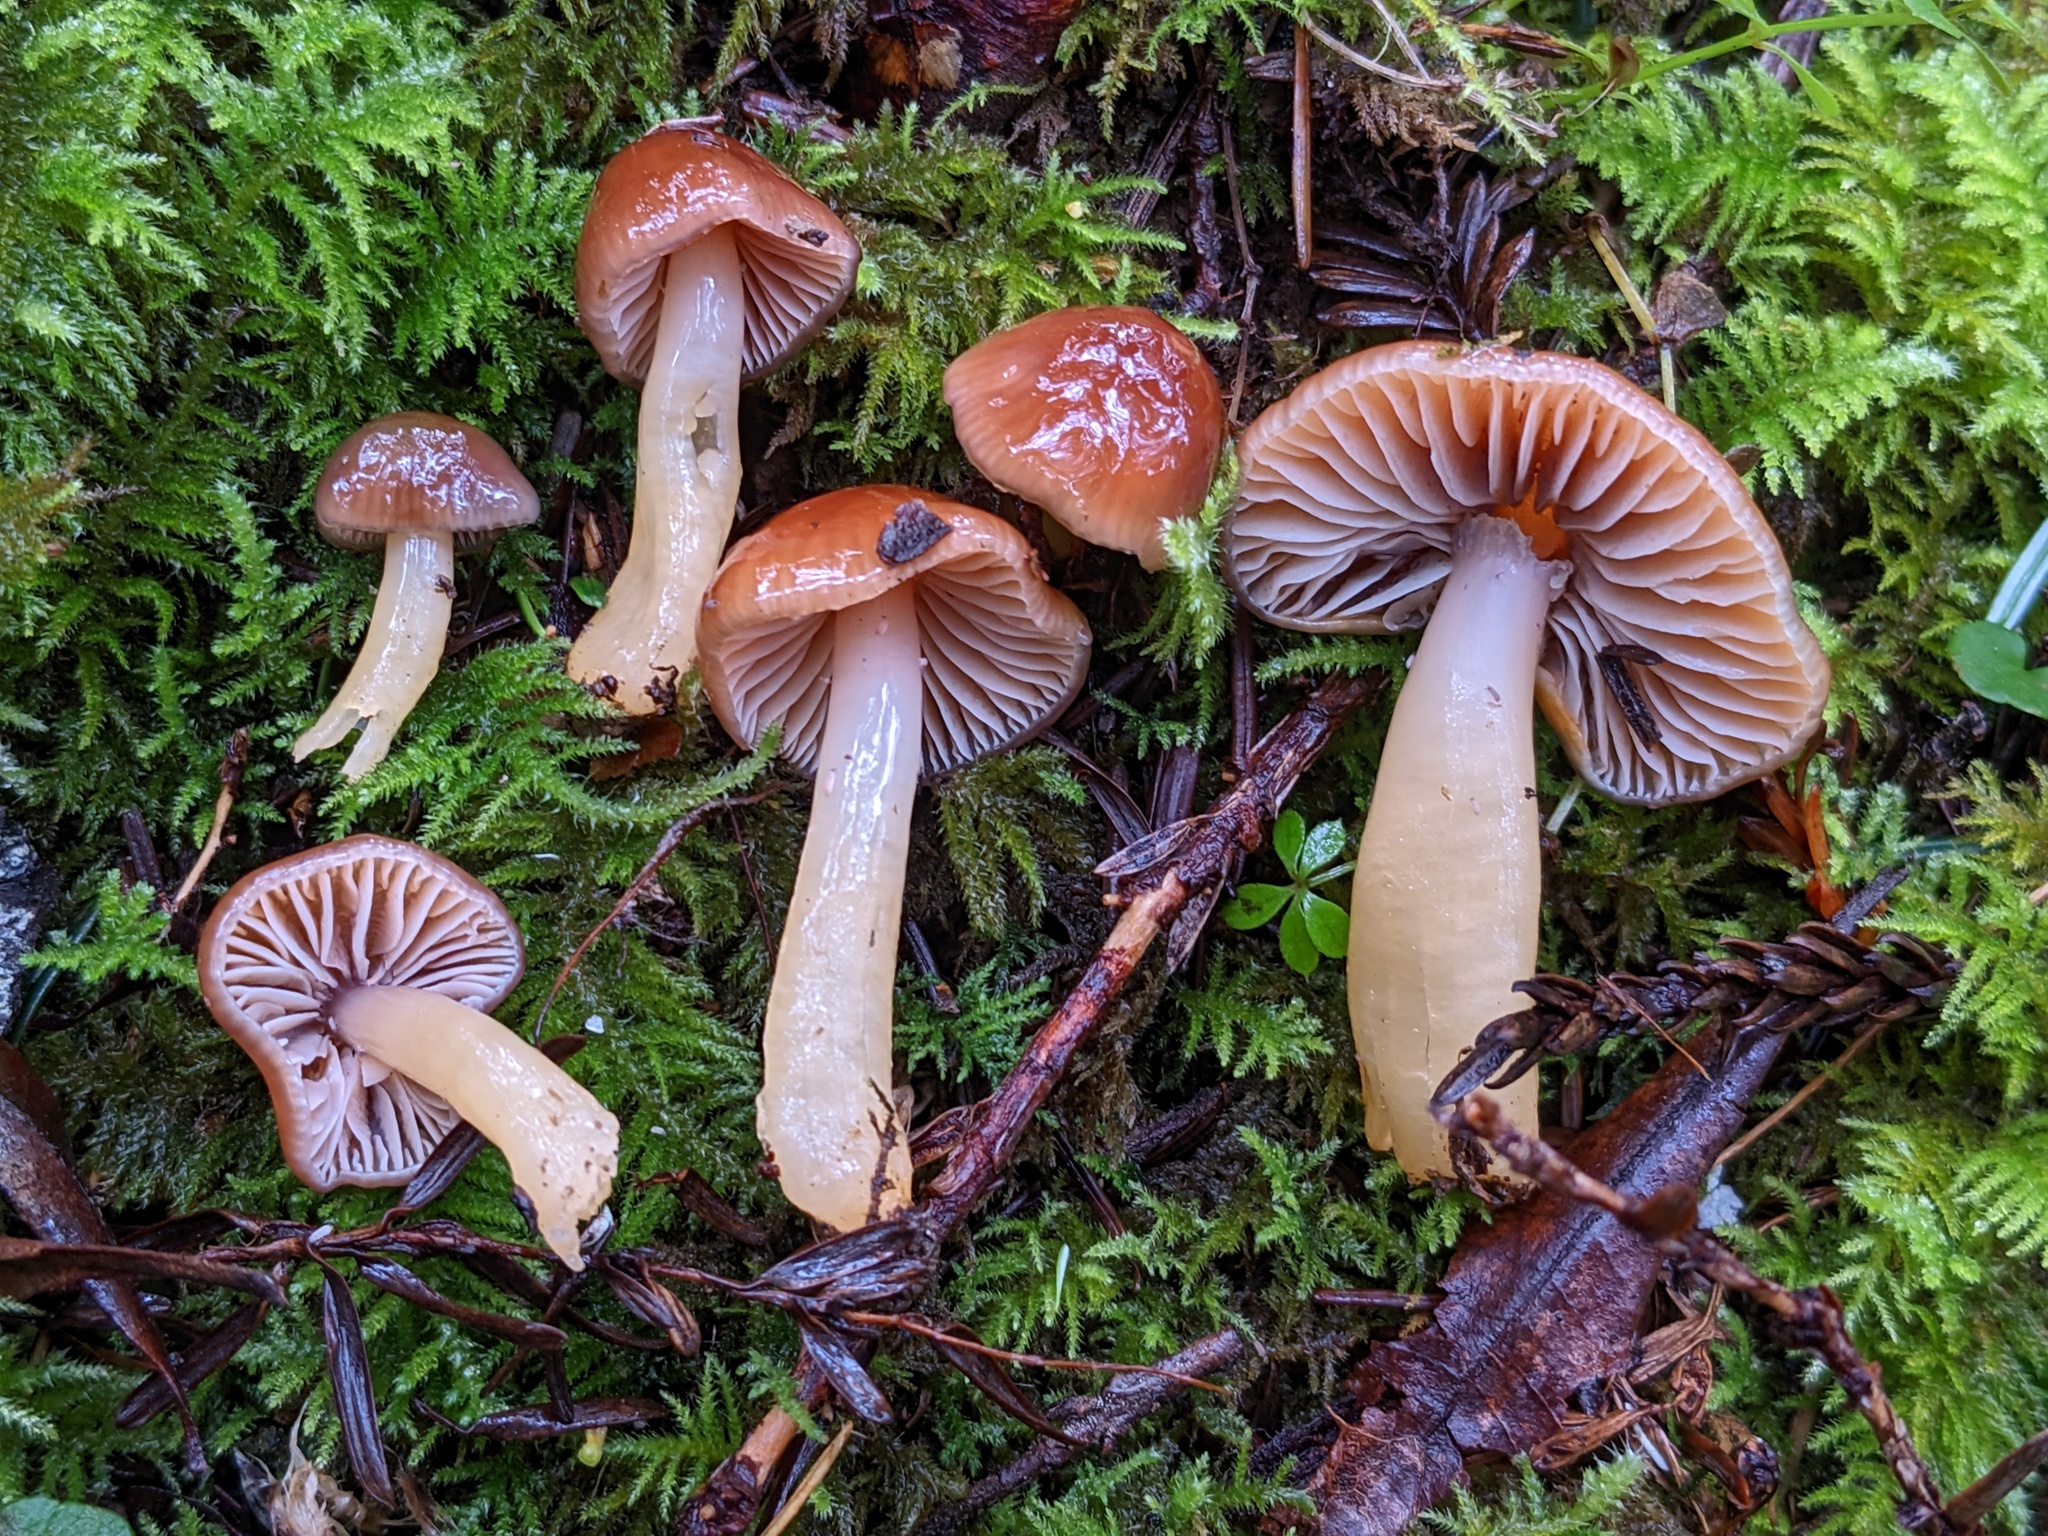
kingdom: Fungi
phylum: Basidiomycota
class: Agaricomycetes
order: Agaricales
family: Hygrophoraceae
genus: Gliophorus
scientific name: Gliophorus psittacinus
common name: Parrot wax-cap
